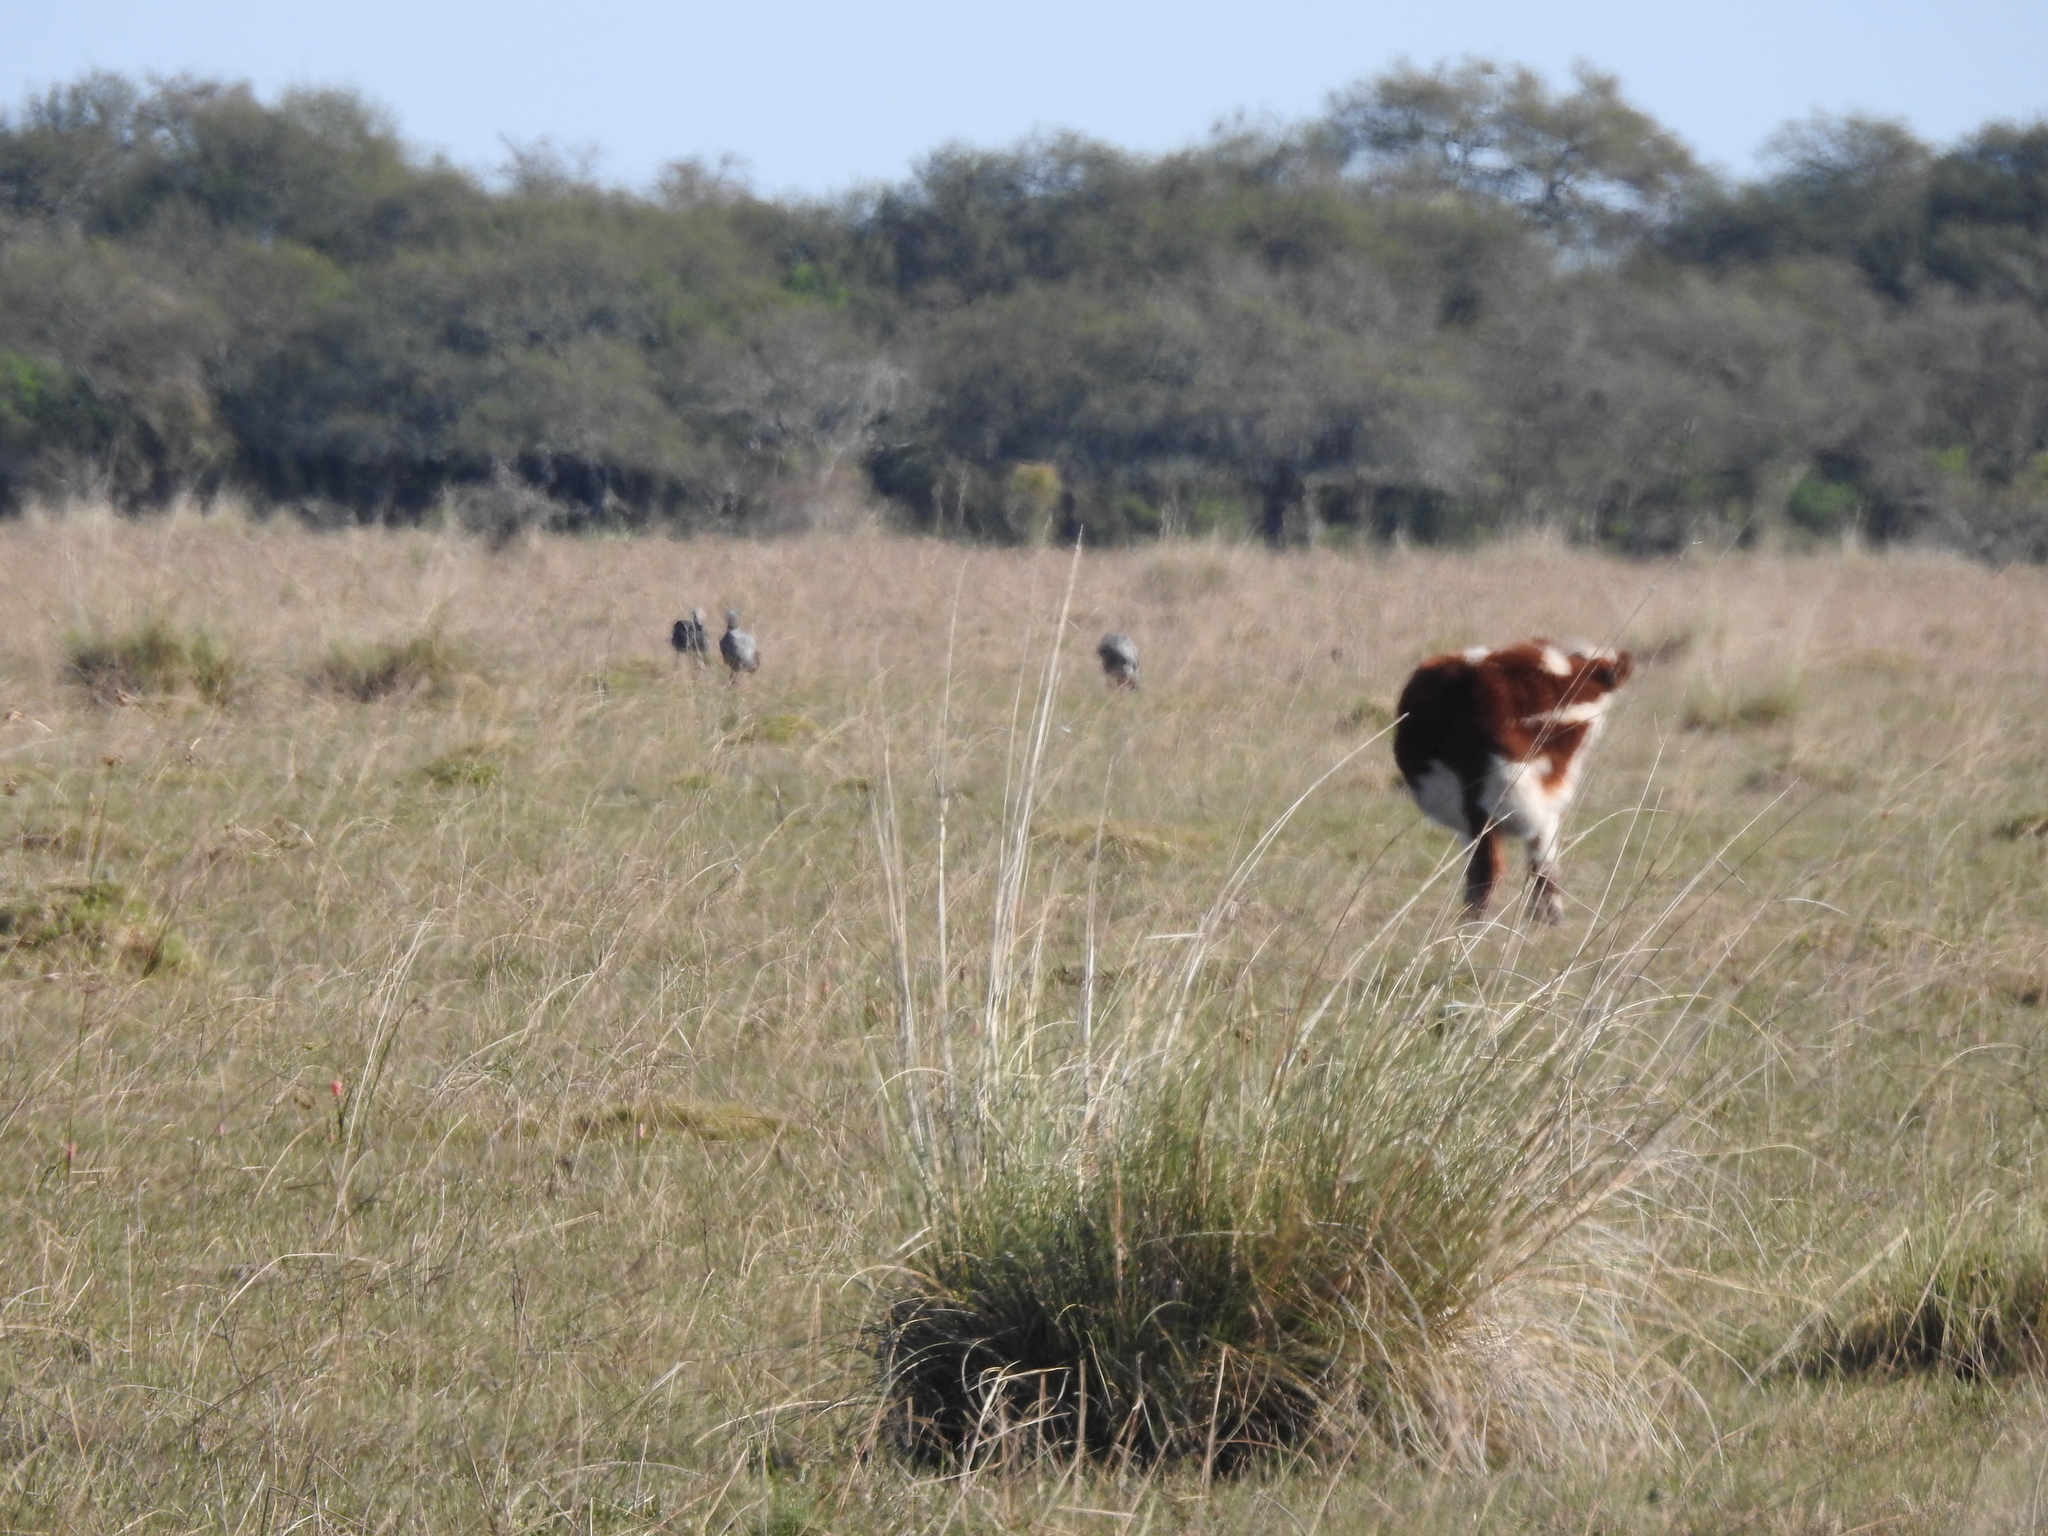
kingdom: Animalia
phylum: Chordata
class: Aves
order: Anseriformes
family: Anhimidae
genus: Chauna
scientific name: Chauna torquata
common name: Southern screamer
